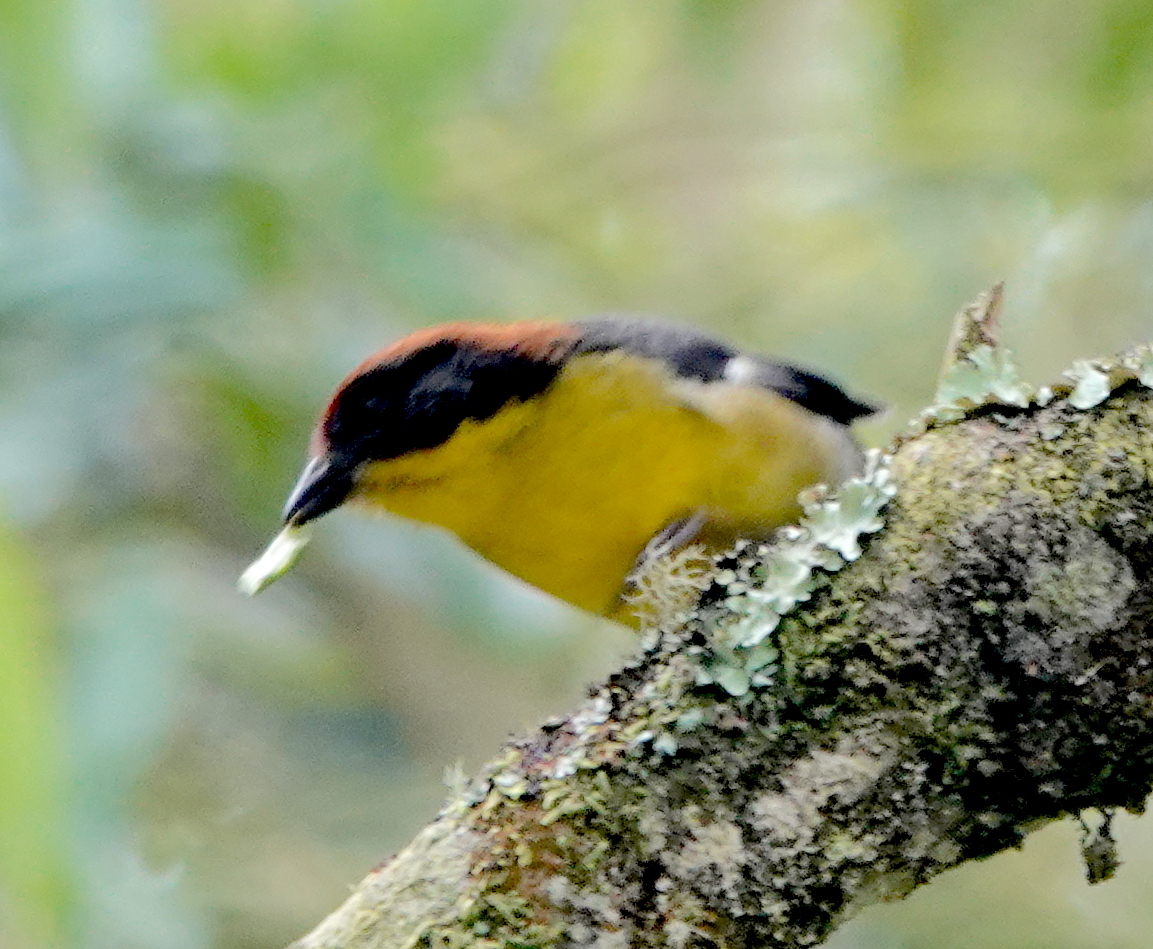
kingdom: Animalia
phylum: Chordata
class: Aves
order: Passeriformes
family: Passerellidae
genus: Atlapetes
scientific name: Atlapetes latinuchus
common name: Yellow-breasted brushfinch
